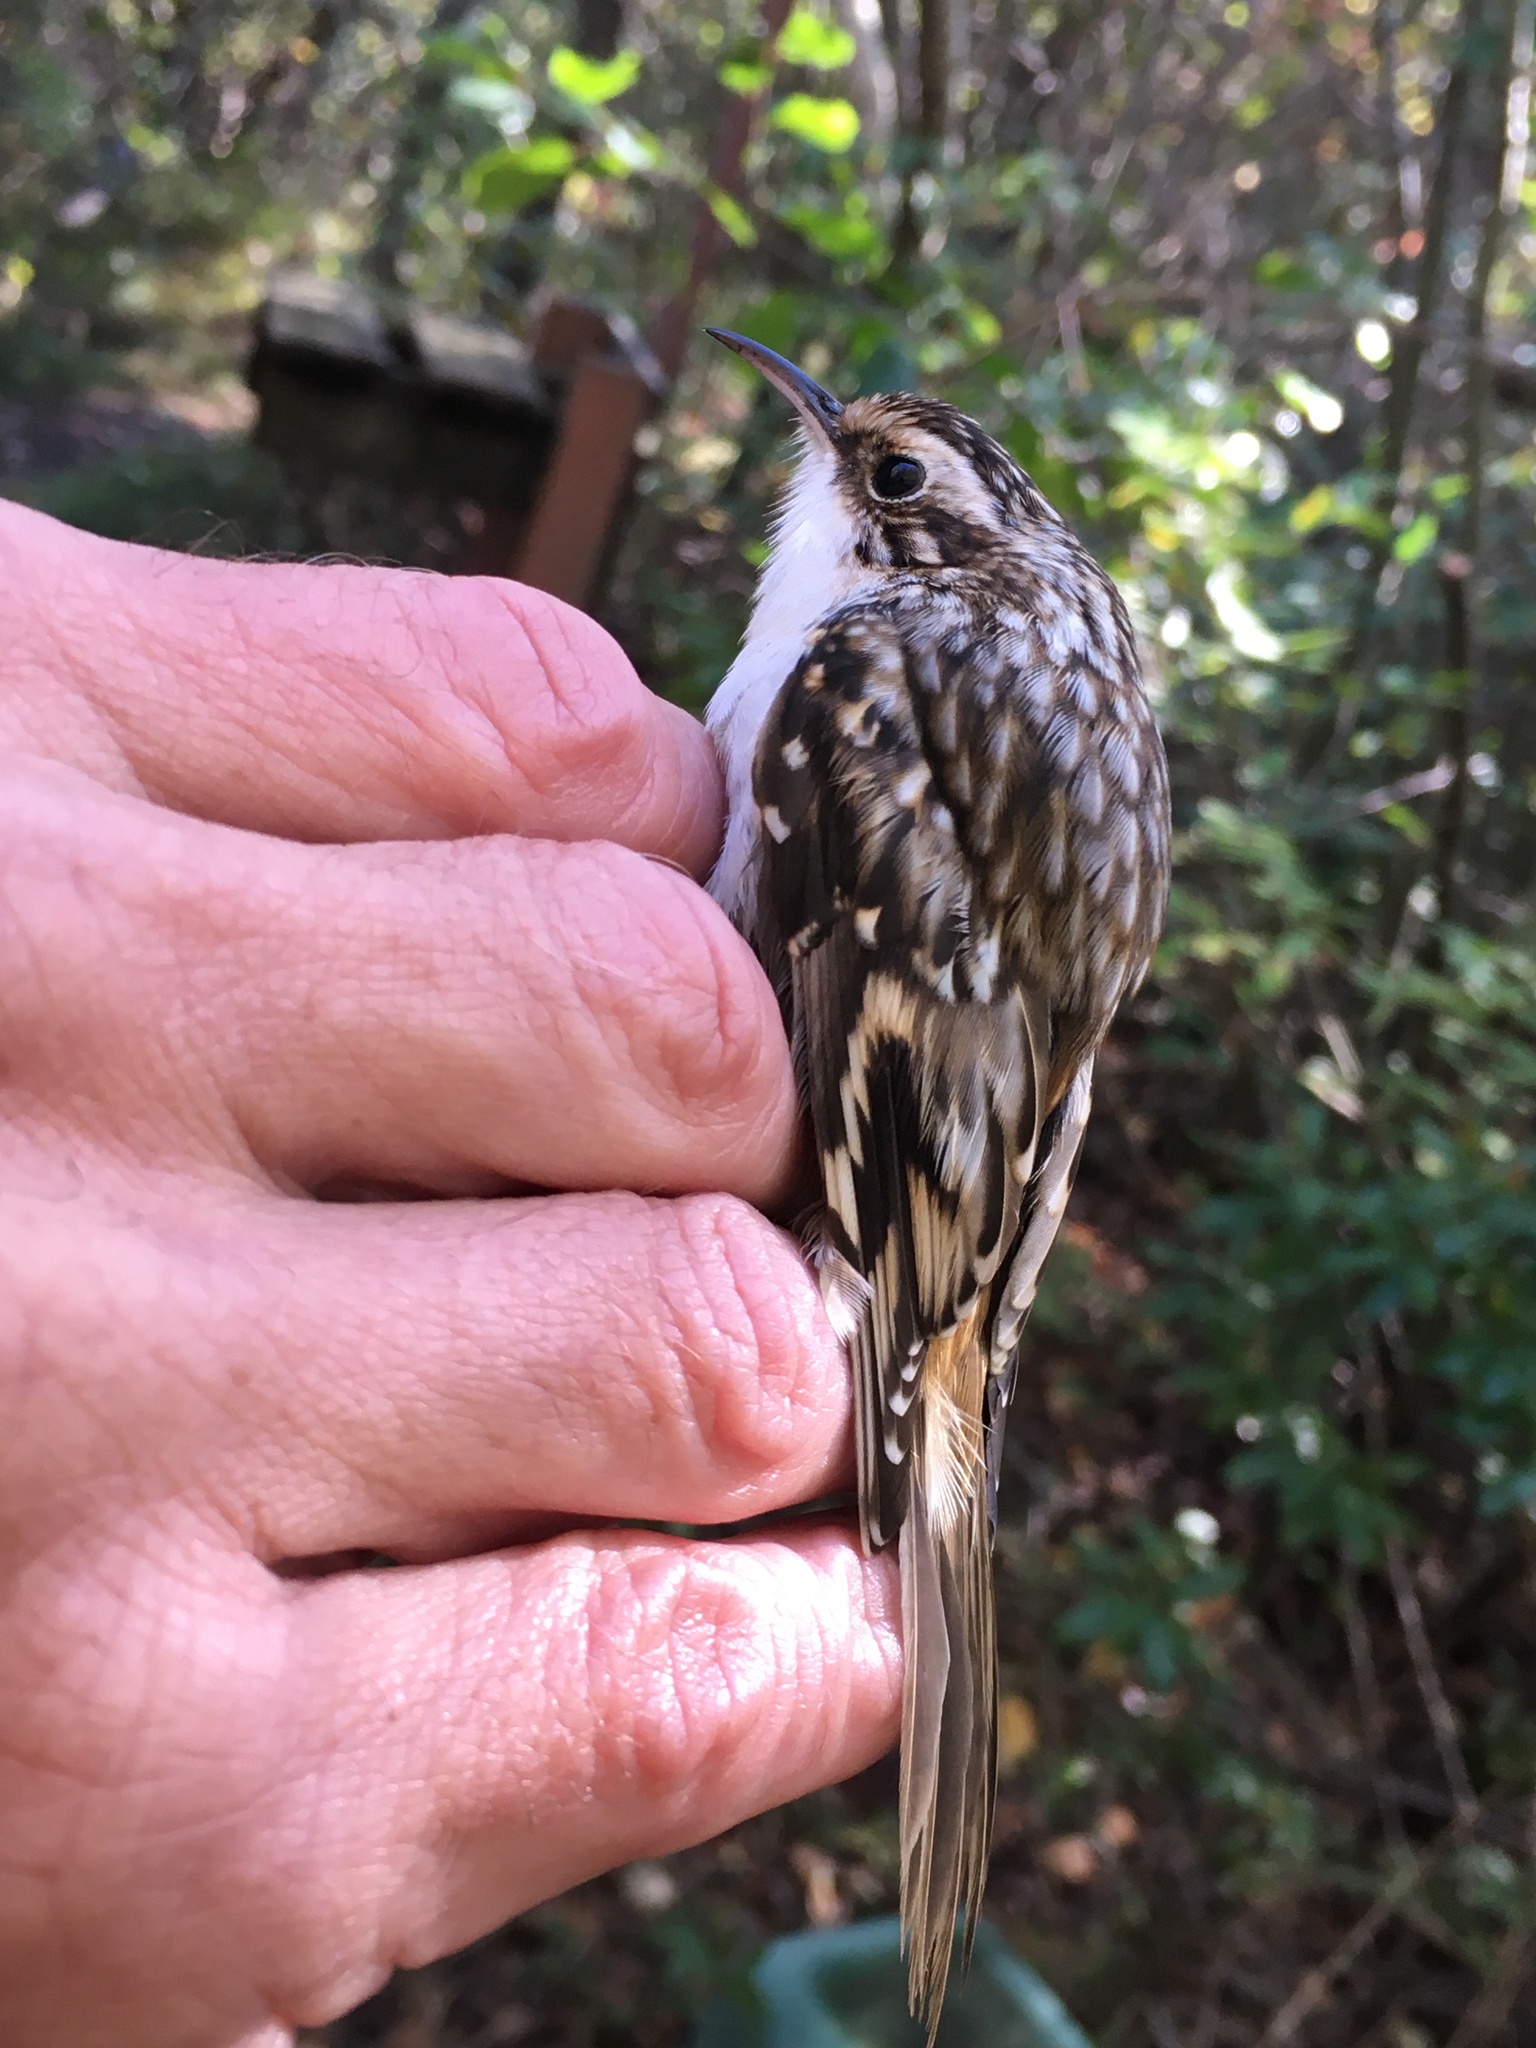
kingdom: Animalia
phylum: Chordata
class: Aves
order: Passeriformes
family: Certhiidae
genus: Certhia
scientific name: Certhia americana
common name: Brown creeper
